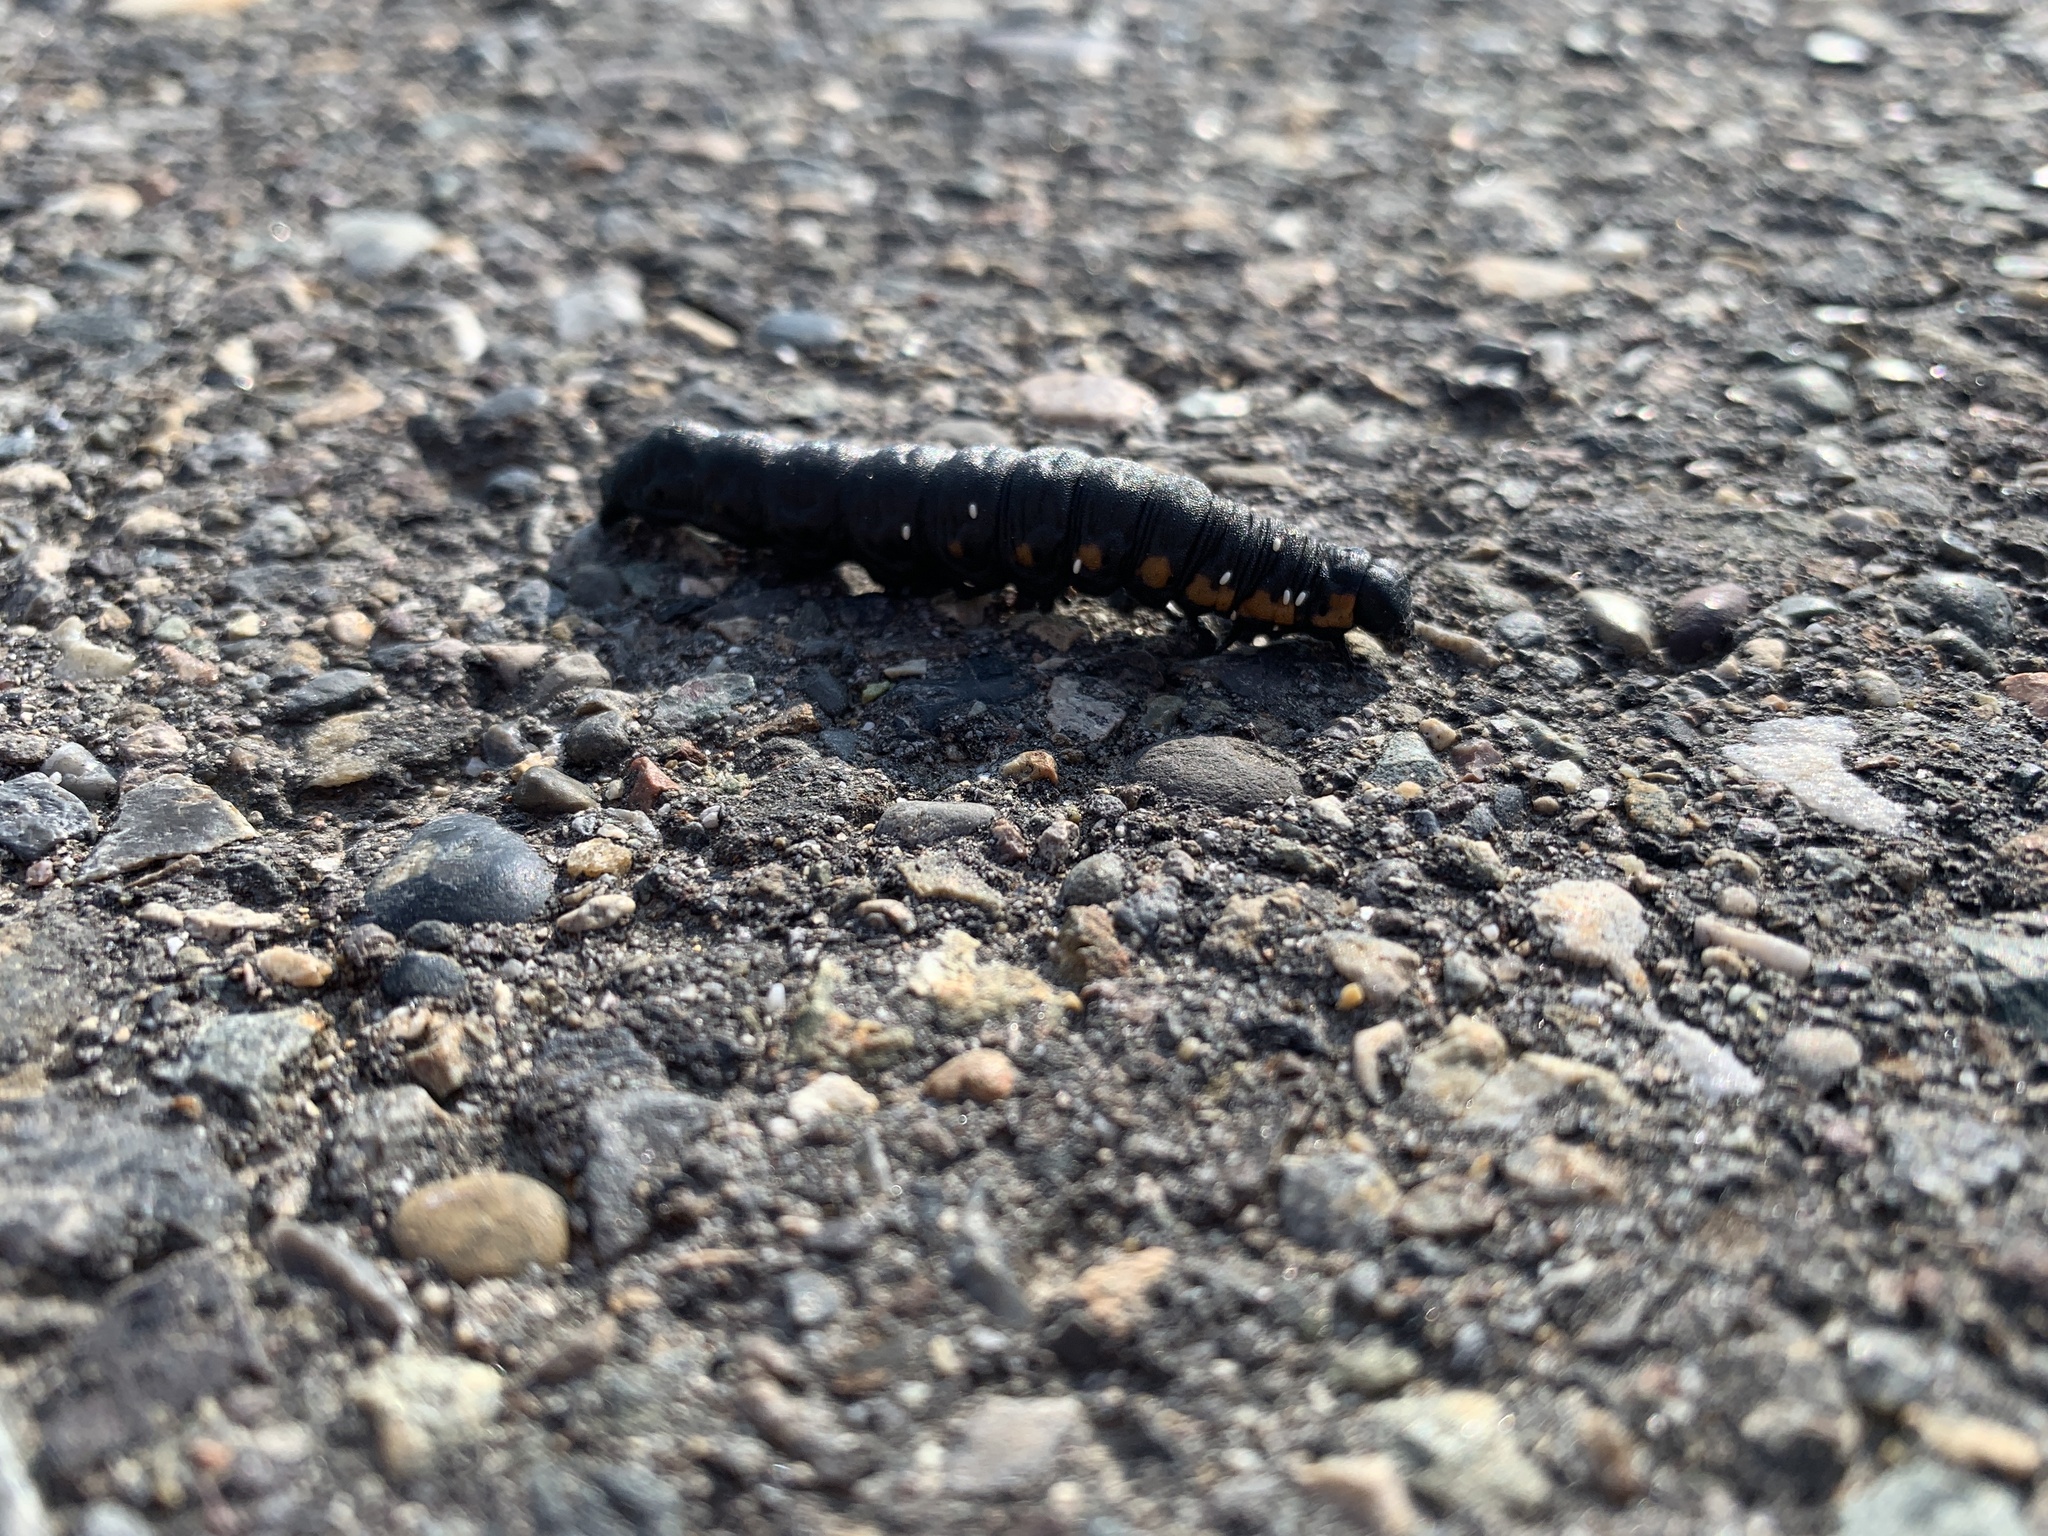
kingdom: Animalia
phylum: Arthropoda
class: Insecta
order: Lepidoptera
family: Noctuidae
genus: Cucullia
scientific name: Cucullia intermedia
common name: Goldenrod cutworm
